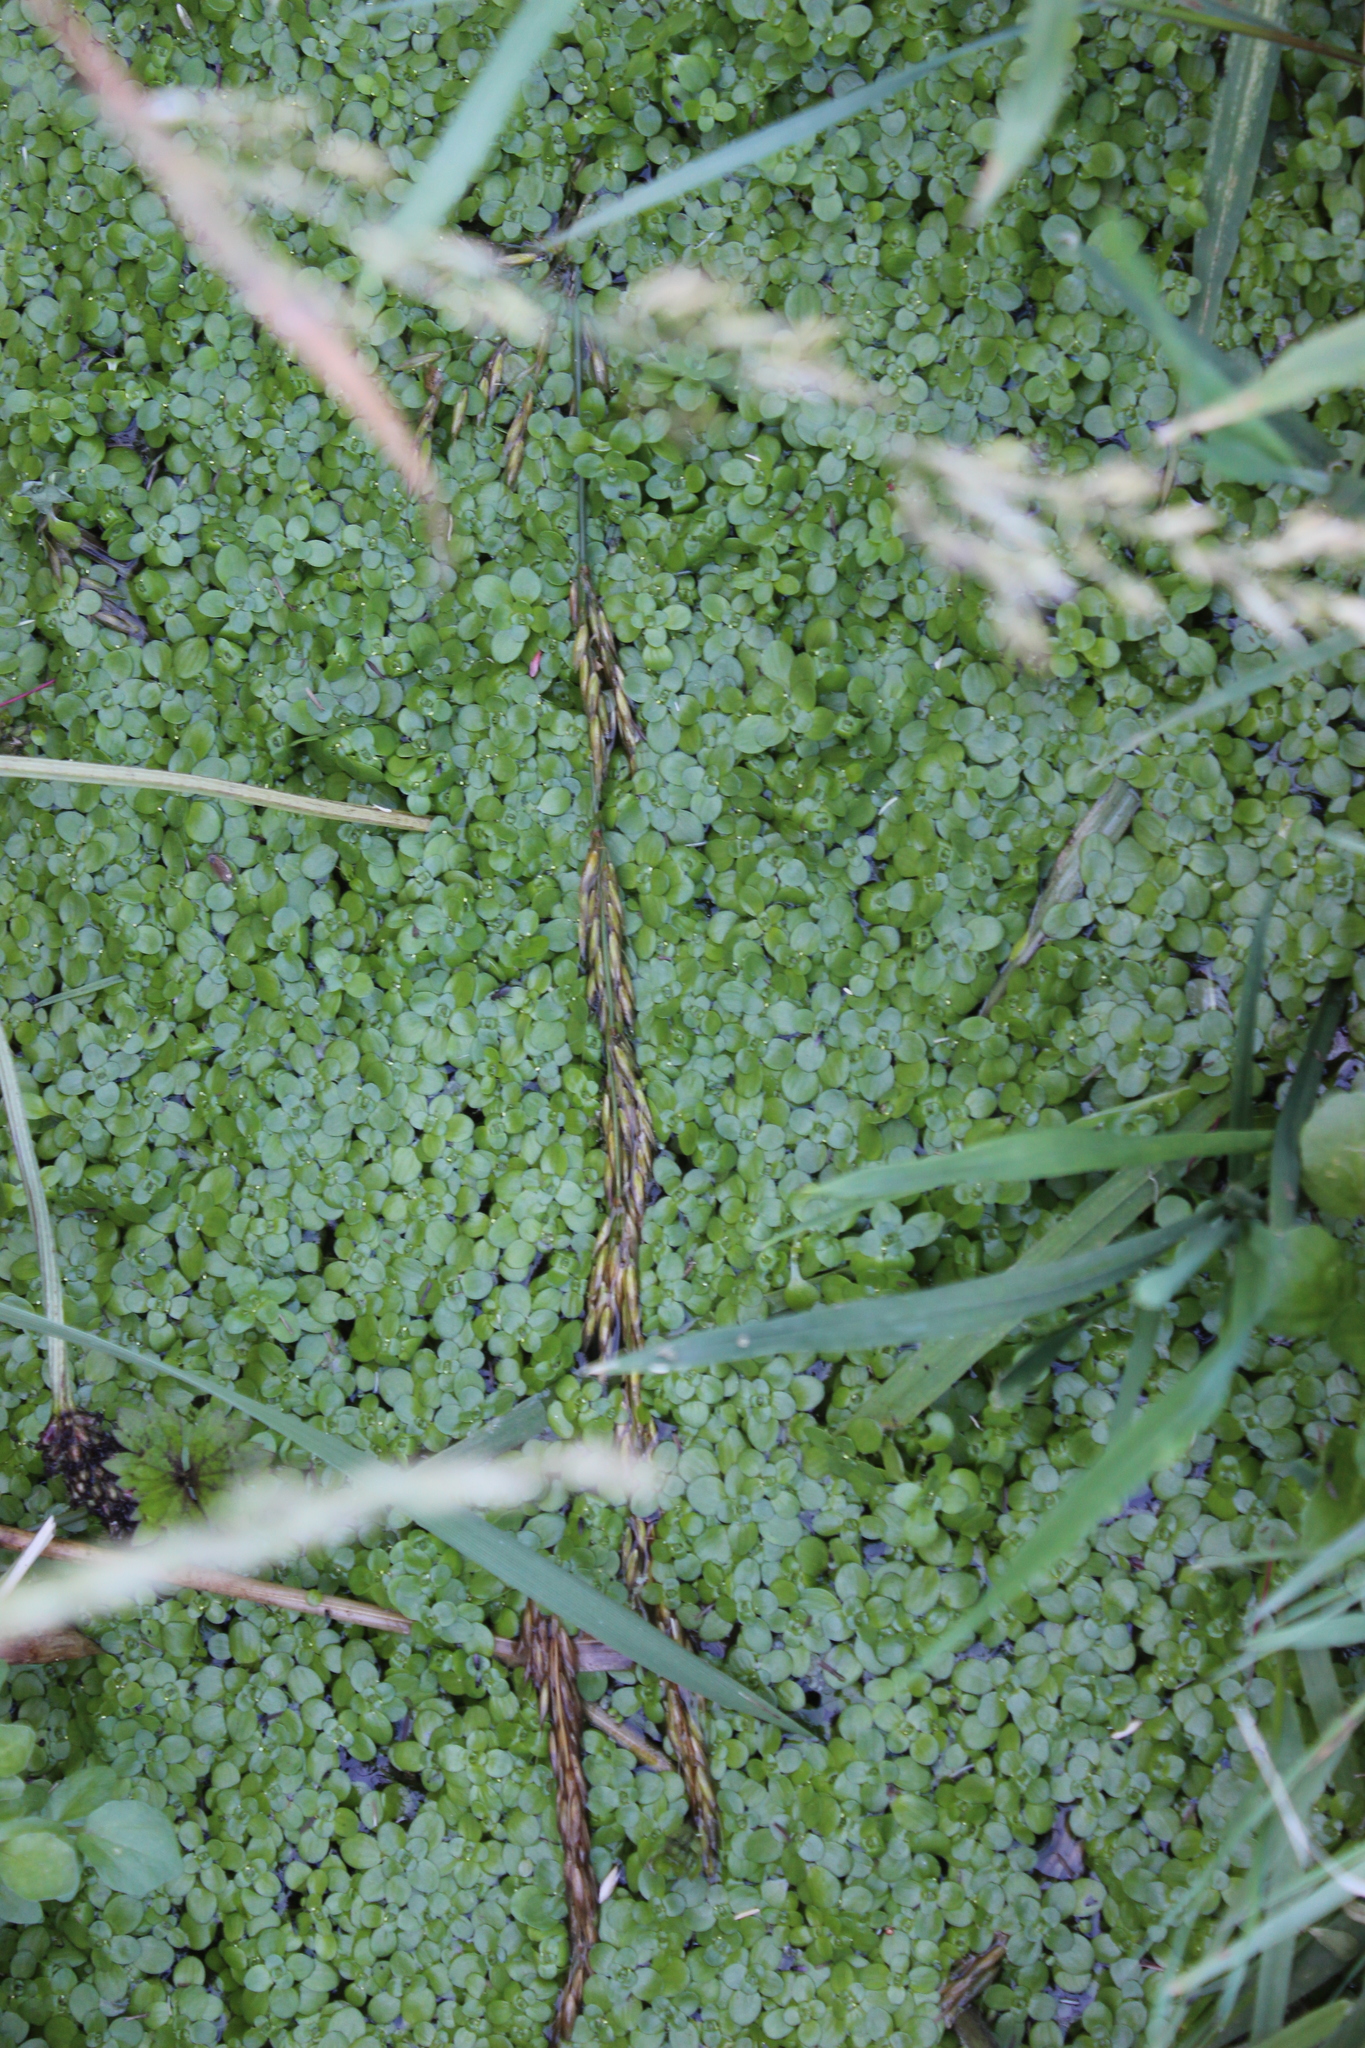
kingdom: Plantae
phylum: Tracheophyta
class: Magnoliopsida
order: Lamiales
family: Plantaginaceae
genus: Callitriche
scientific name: Callitriche stagnalis
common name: Common water-starwort
